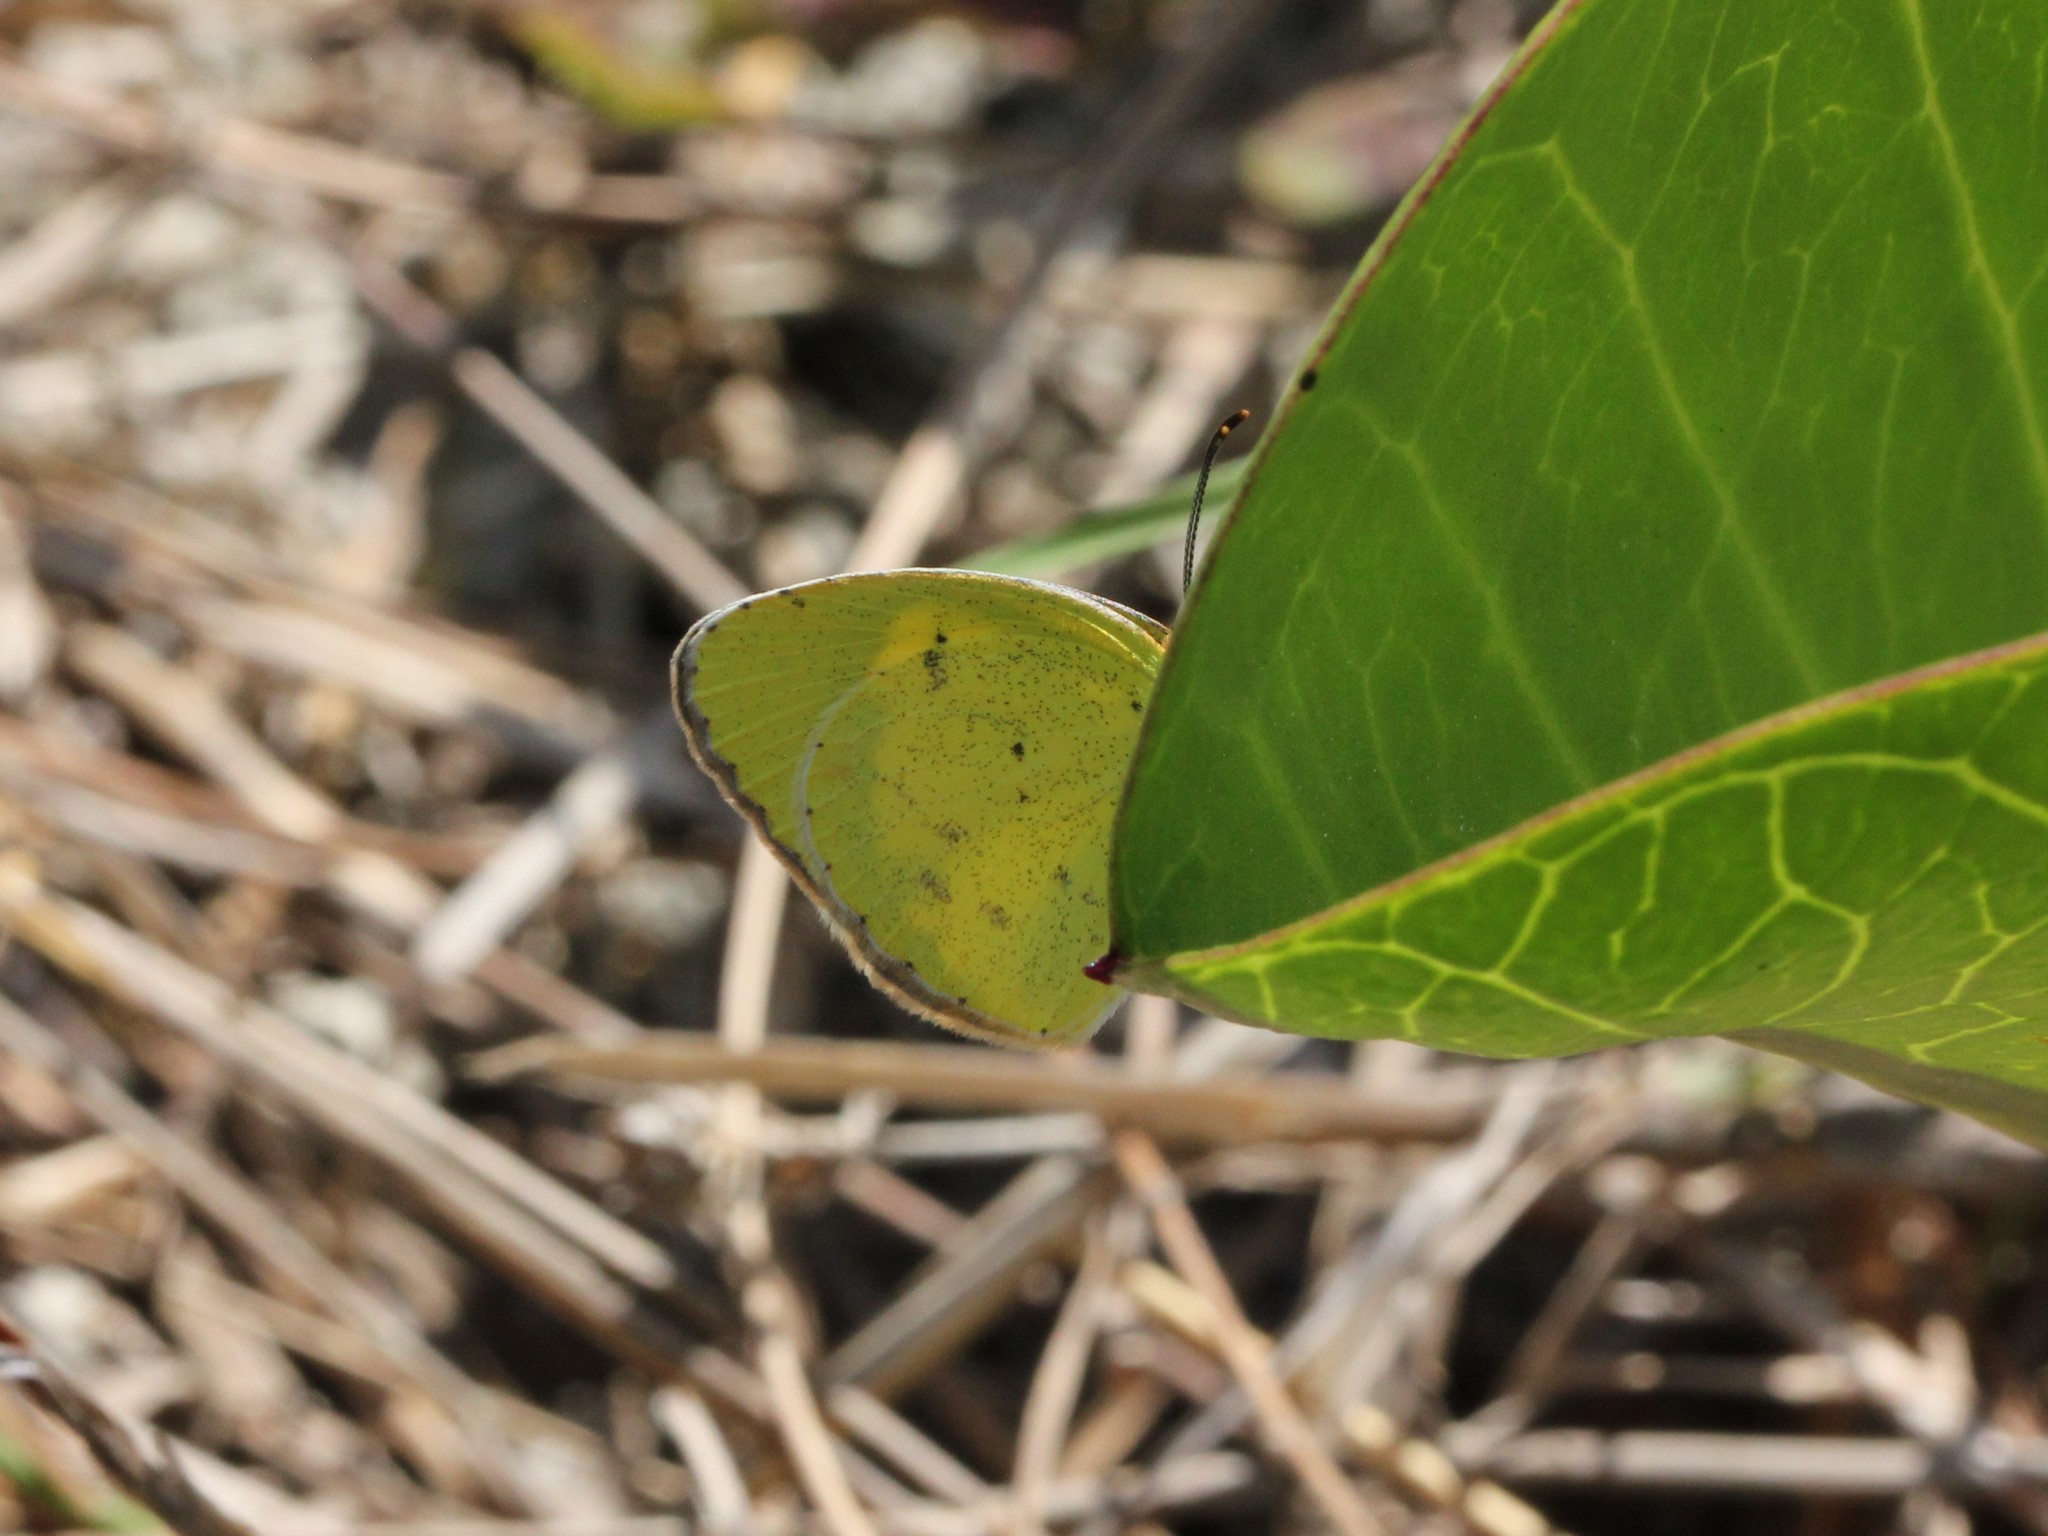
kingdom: Animalia
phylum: Arthropoda
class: Insecta
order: Lepidoptera
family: Pieridae
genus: Pyrisitia
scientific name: Pyrisitia lisa
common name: Little yellow
